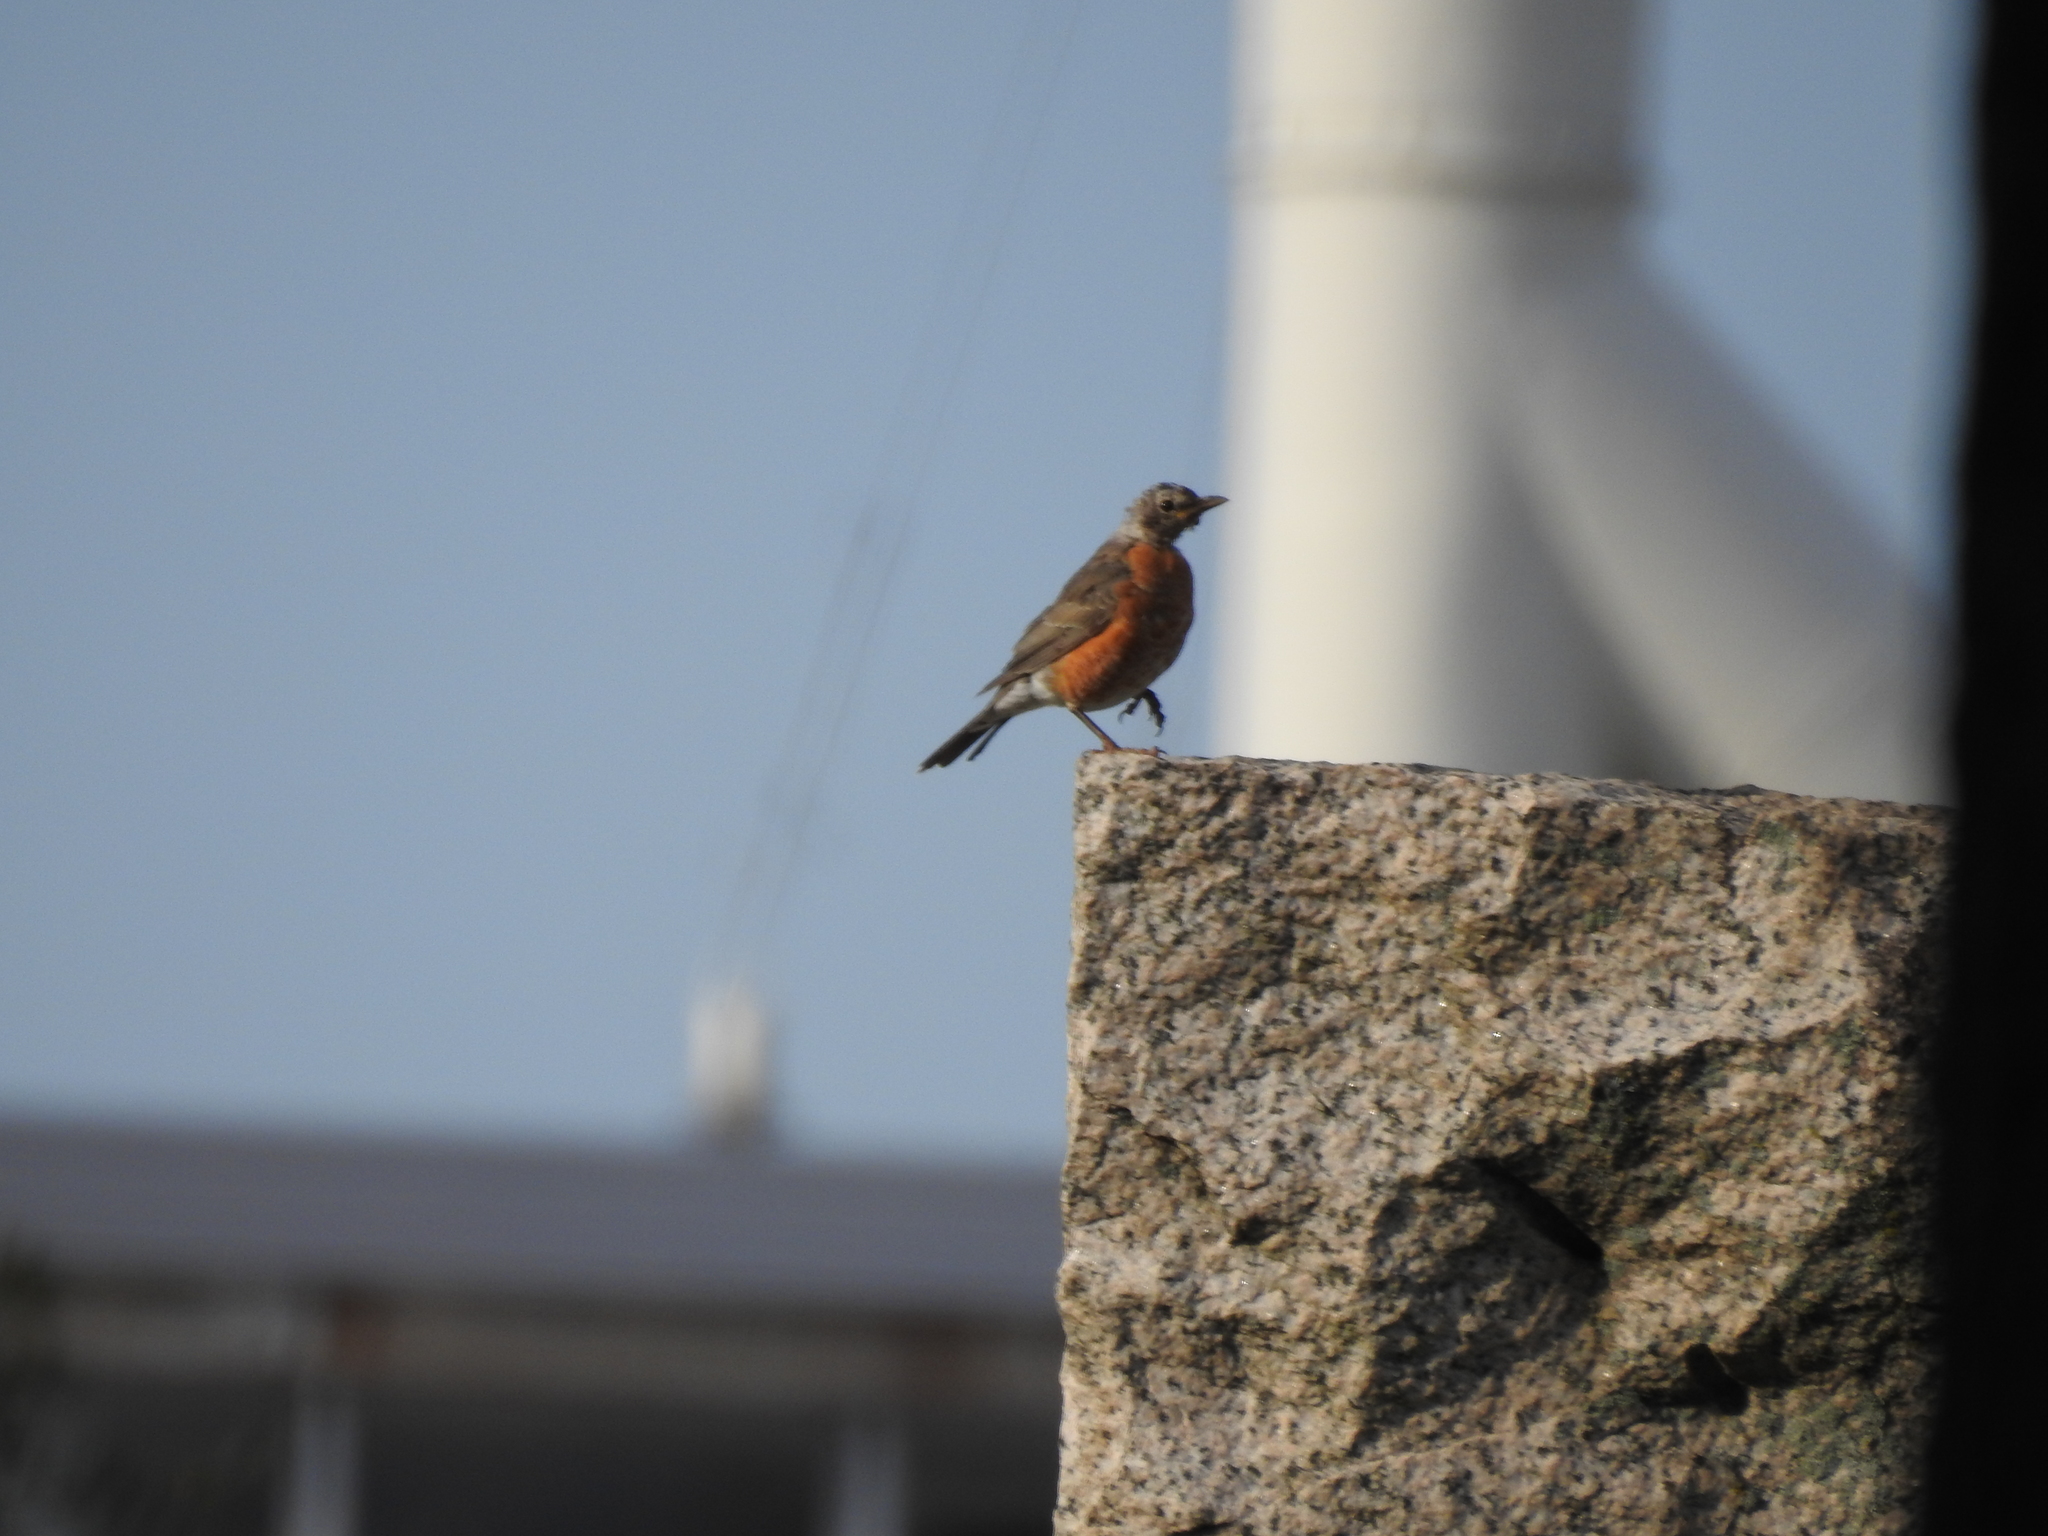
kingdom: Animalia
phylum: Chordata
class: Aves
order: Passeriformes
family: Turdidae
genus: Turdus
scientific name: Turdus migratorius
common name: American robin
